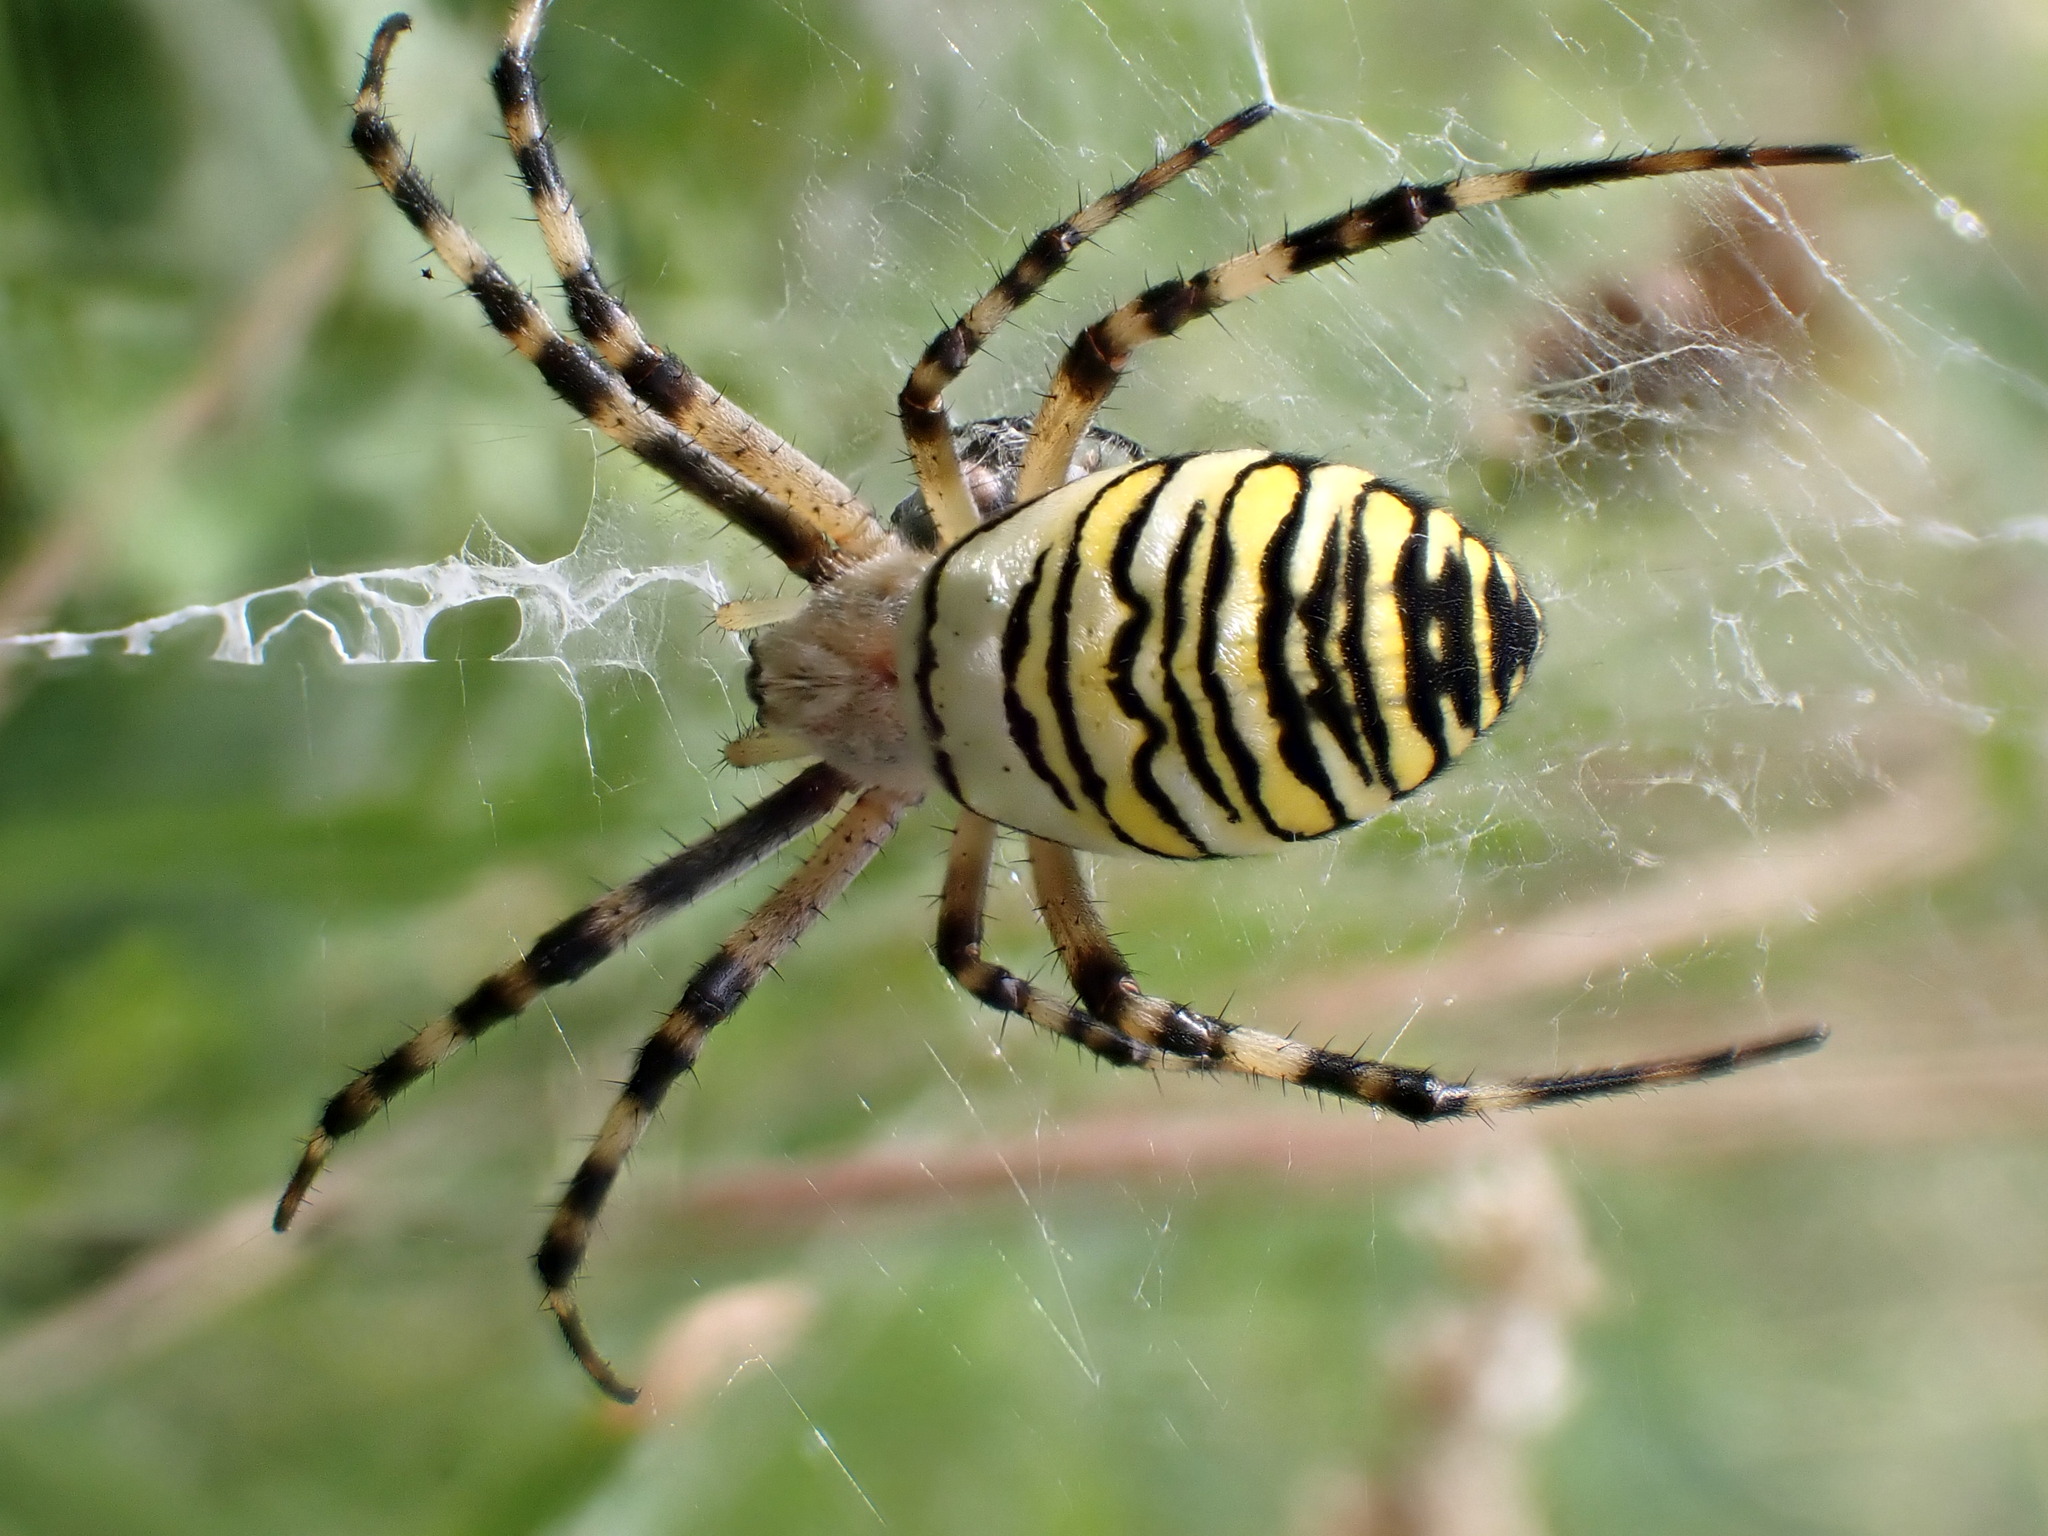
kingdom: Animalia
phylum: Arthropoda
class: Arachnida
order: Araneae
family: Araneidae
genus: Argiope
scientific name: Argiope bruennichi
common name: Wasp spider
